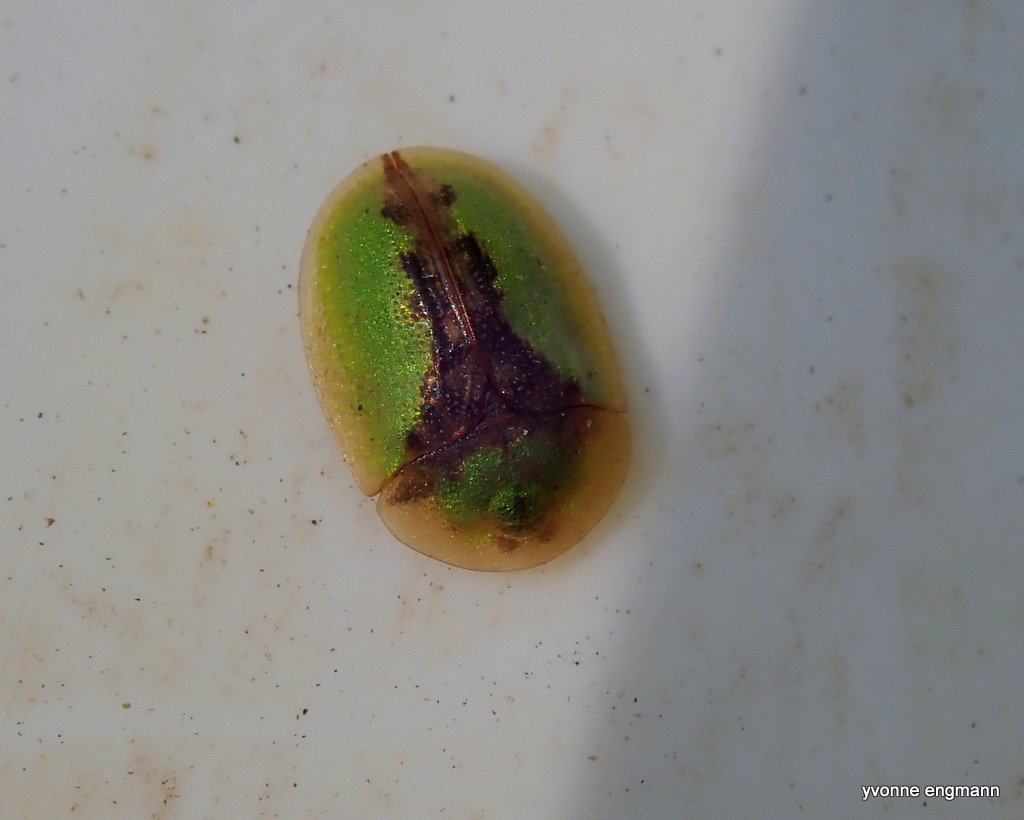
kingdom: Animalia
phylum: Arthropoda
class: Insecta
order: Coleoptera
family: Chrysomelidae
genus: Cassida
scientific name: Cassida vibex
